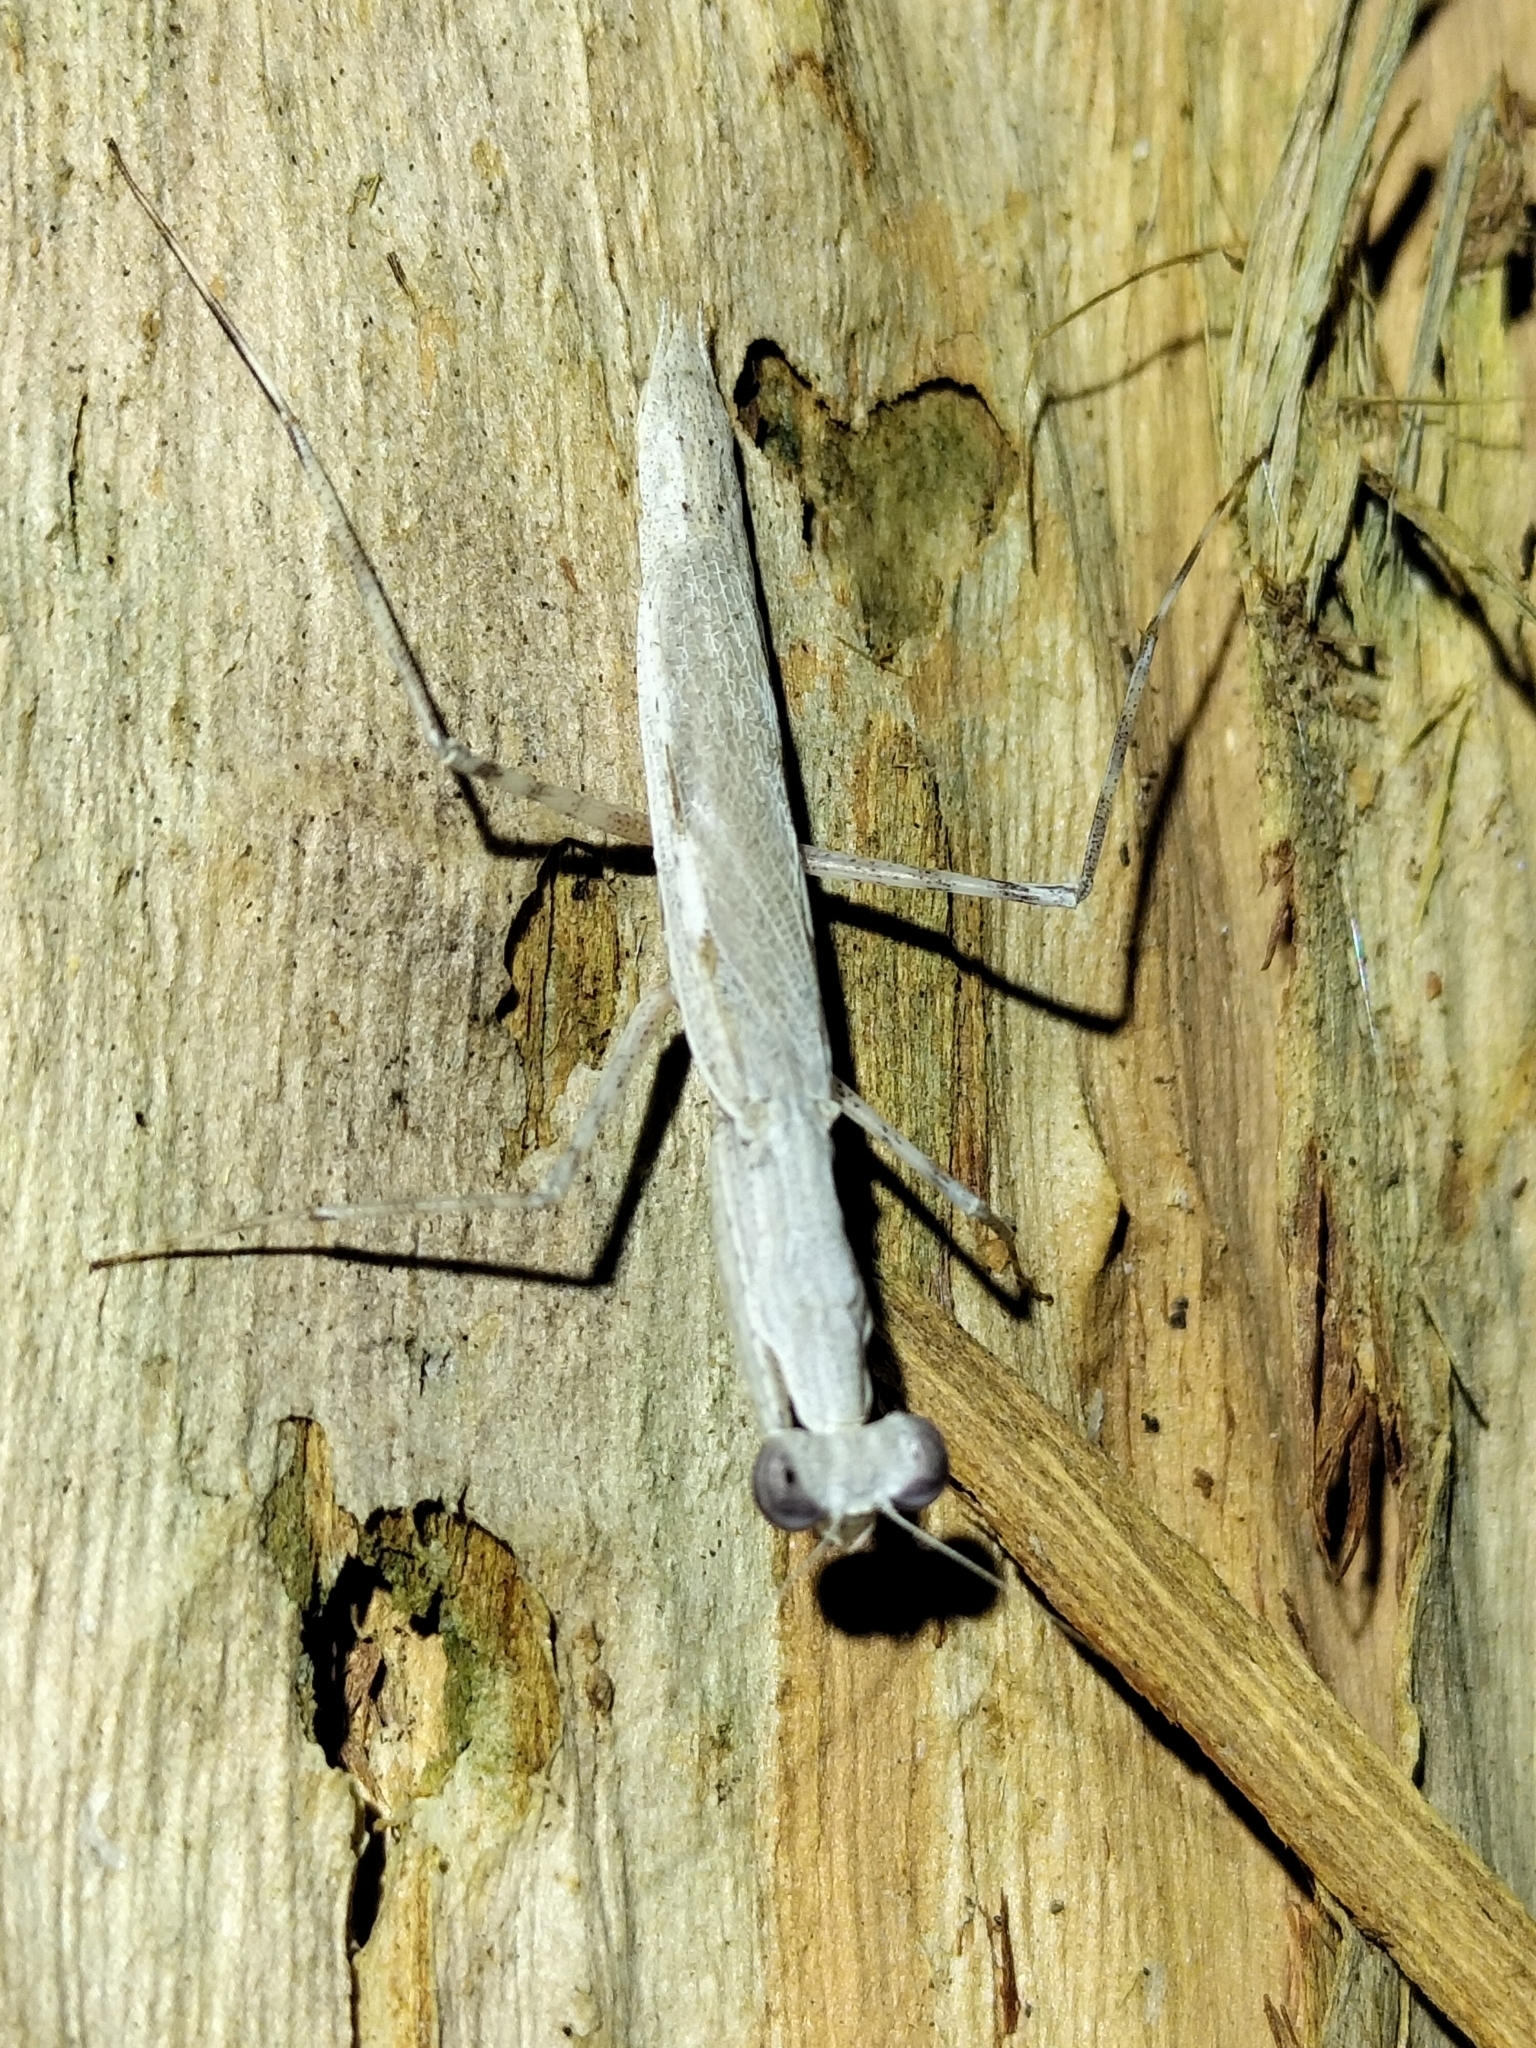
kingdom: Animalia
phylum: Arthropoda
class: Insecta
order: Mantodea
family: Nanomantidae
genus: Ima
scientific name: Ima fusca
